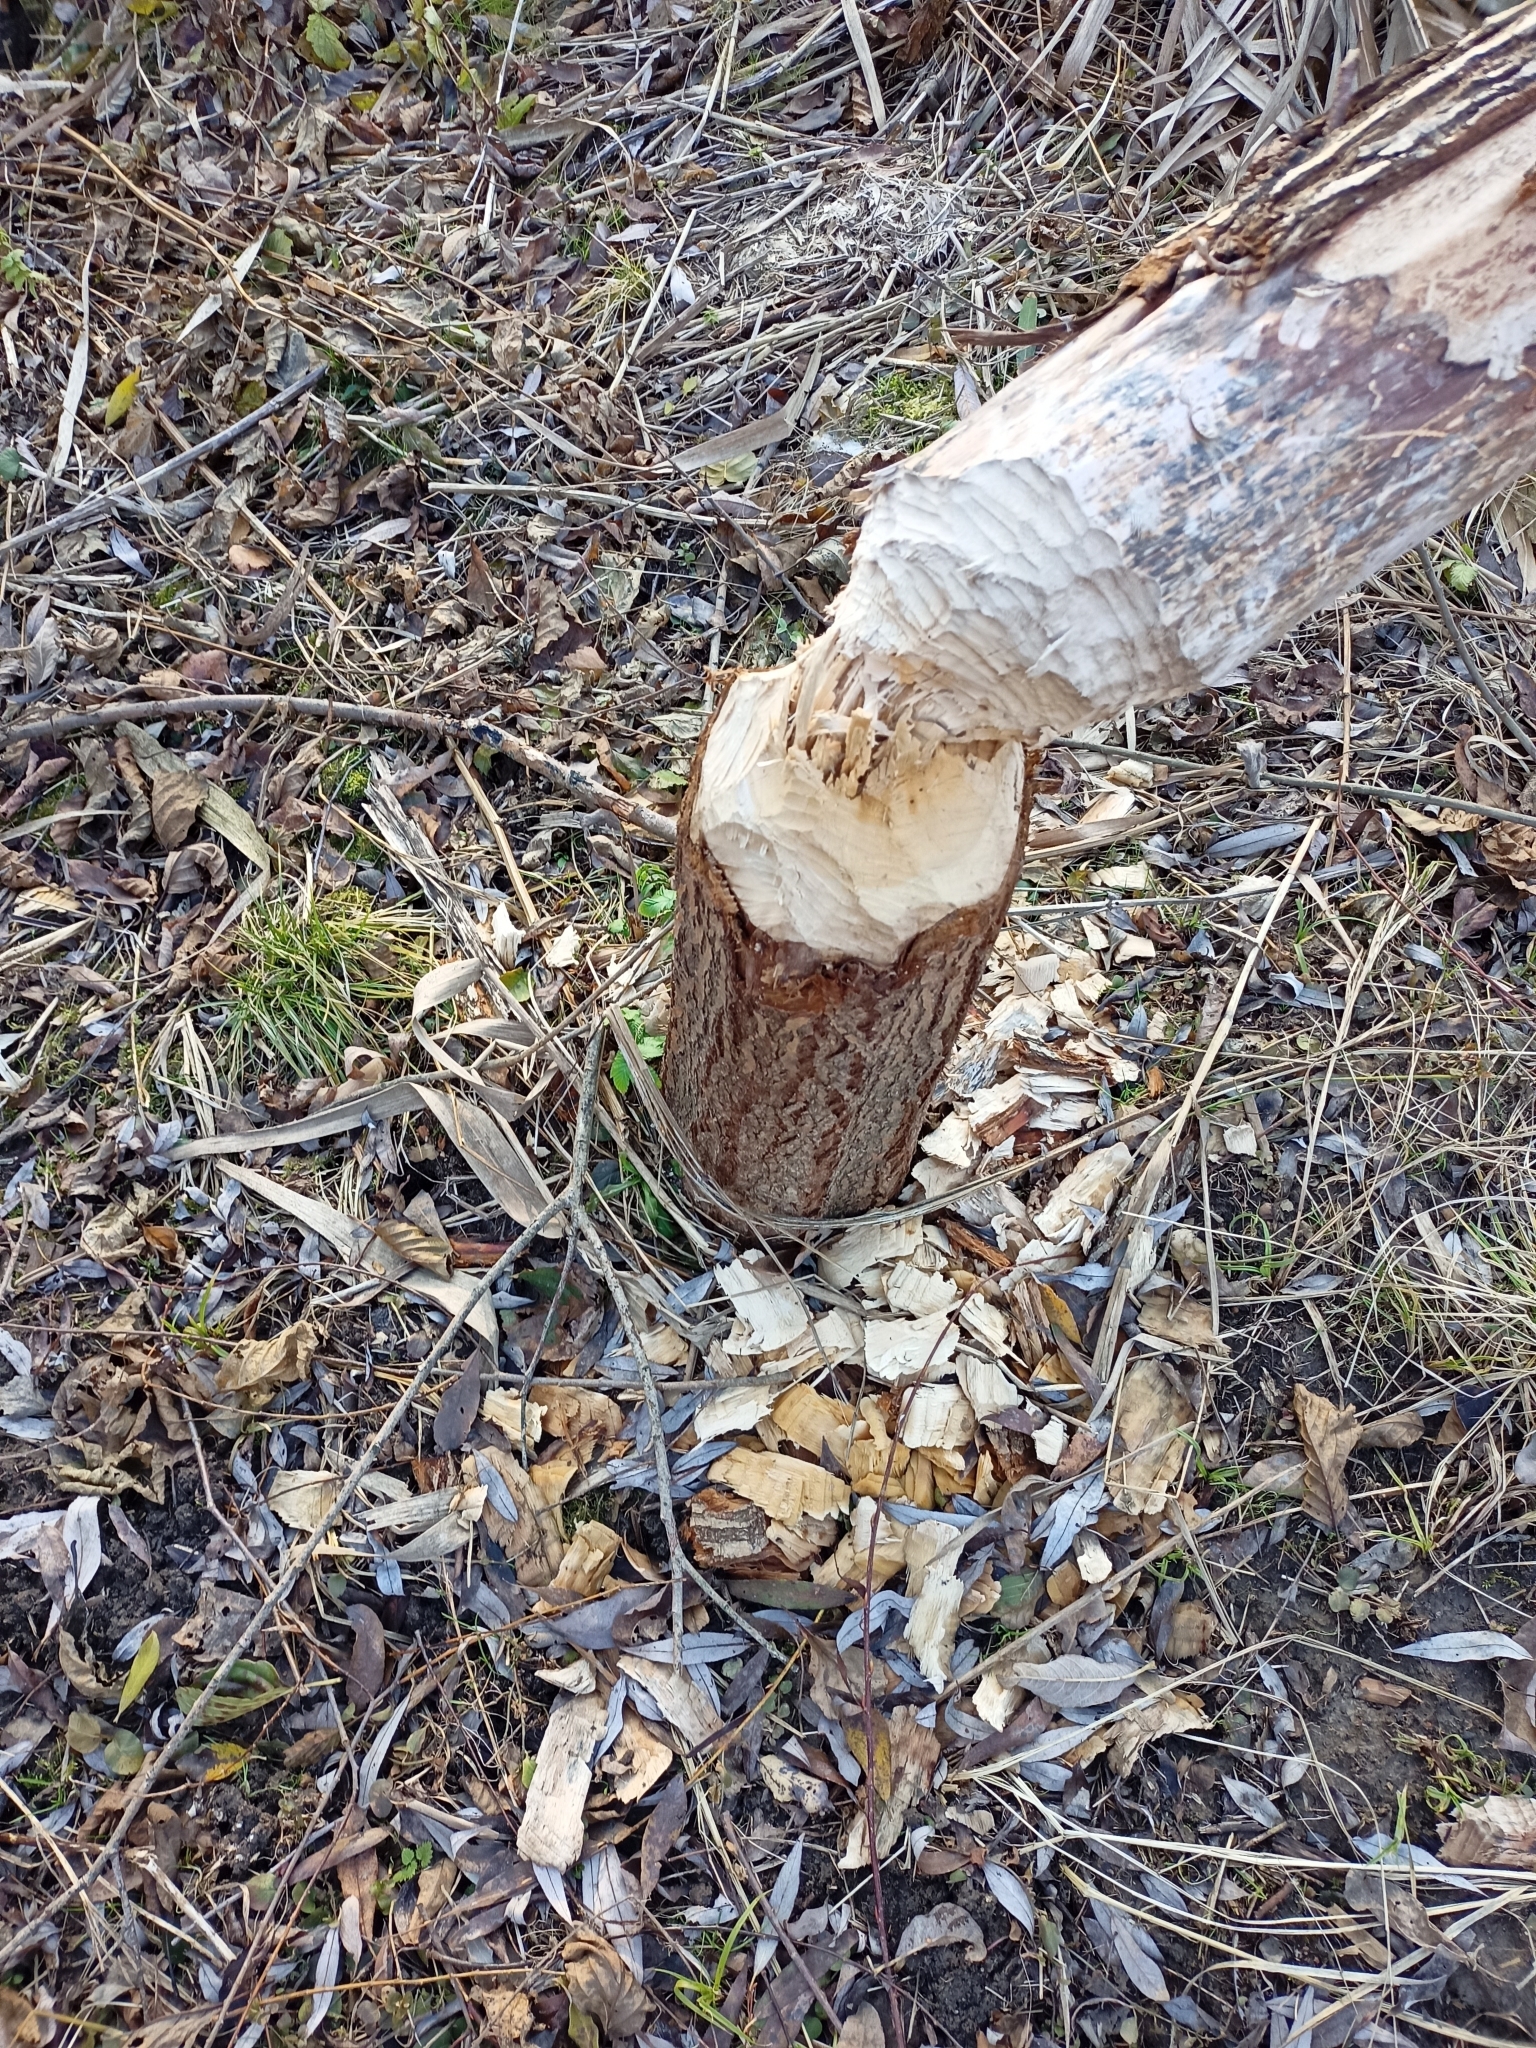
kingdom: Animalia
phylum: Chordata
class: Mammalia
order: Rodentia
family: Castoridae
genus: Castor
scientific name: Castor fiber
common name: Eurasian beaver
